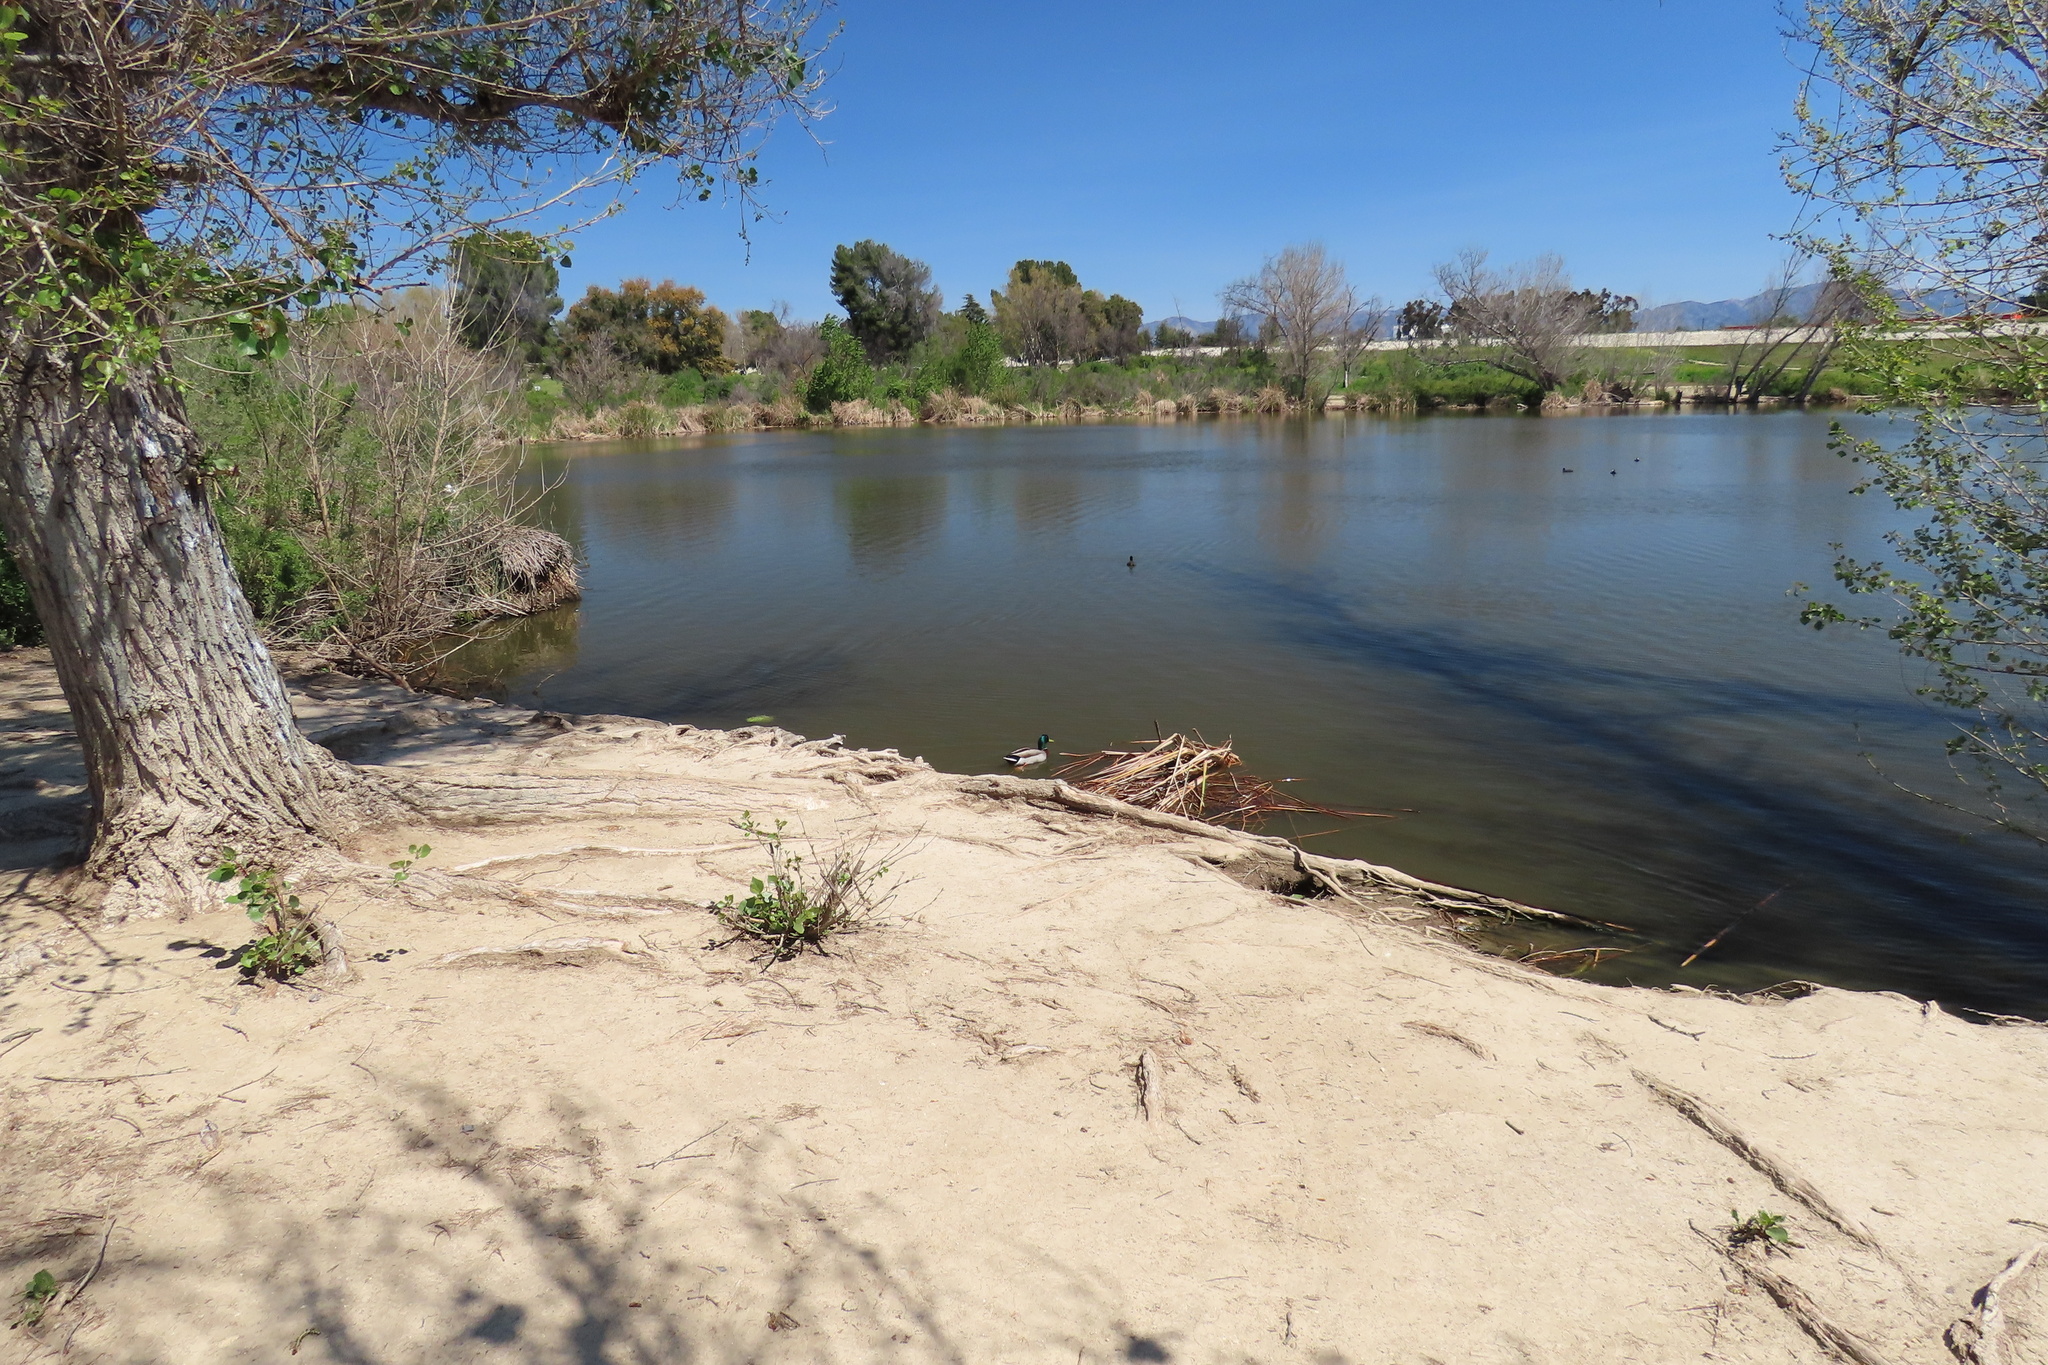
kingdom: Animalia
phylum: Chordata
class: Aves
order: Anseriformes
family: Anatidae
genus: Anas
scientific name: Anas platyrhynchos
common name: Mallard
